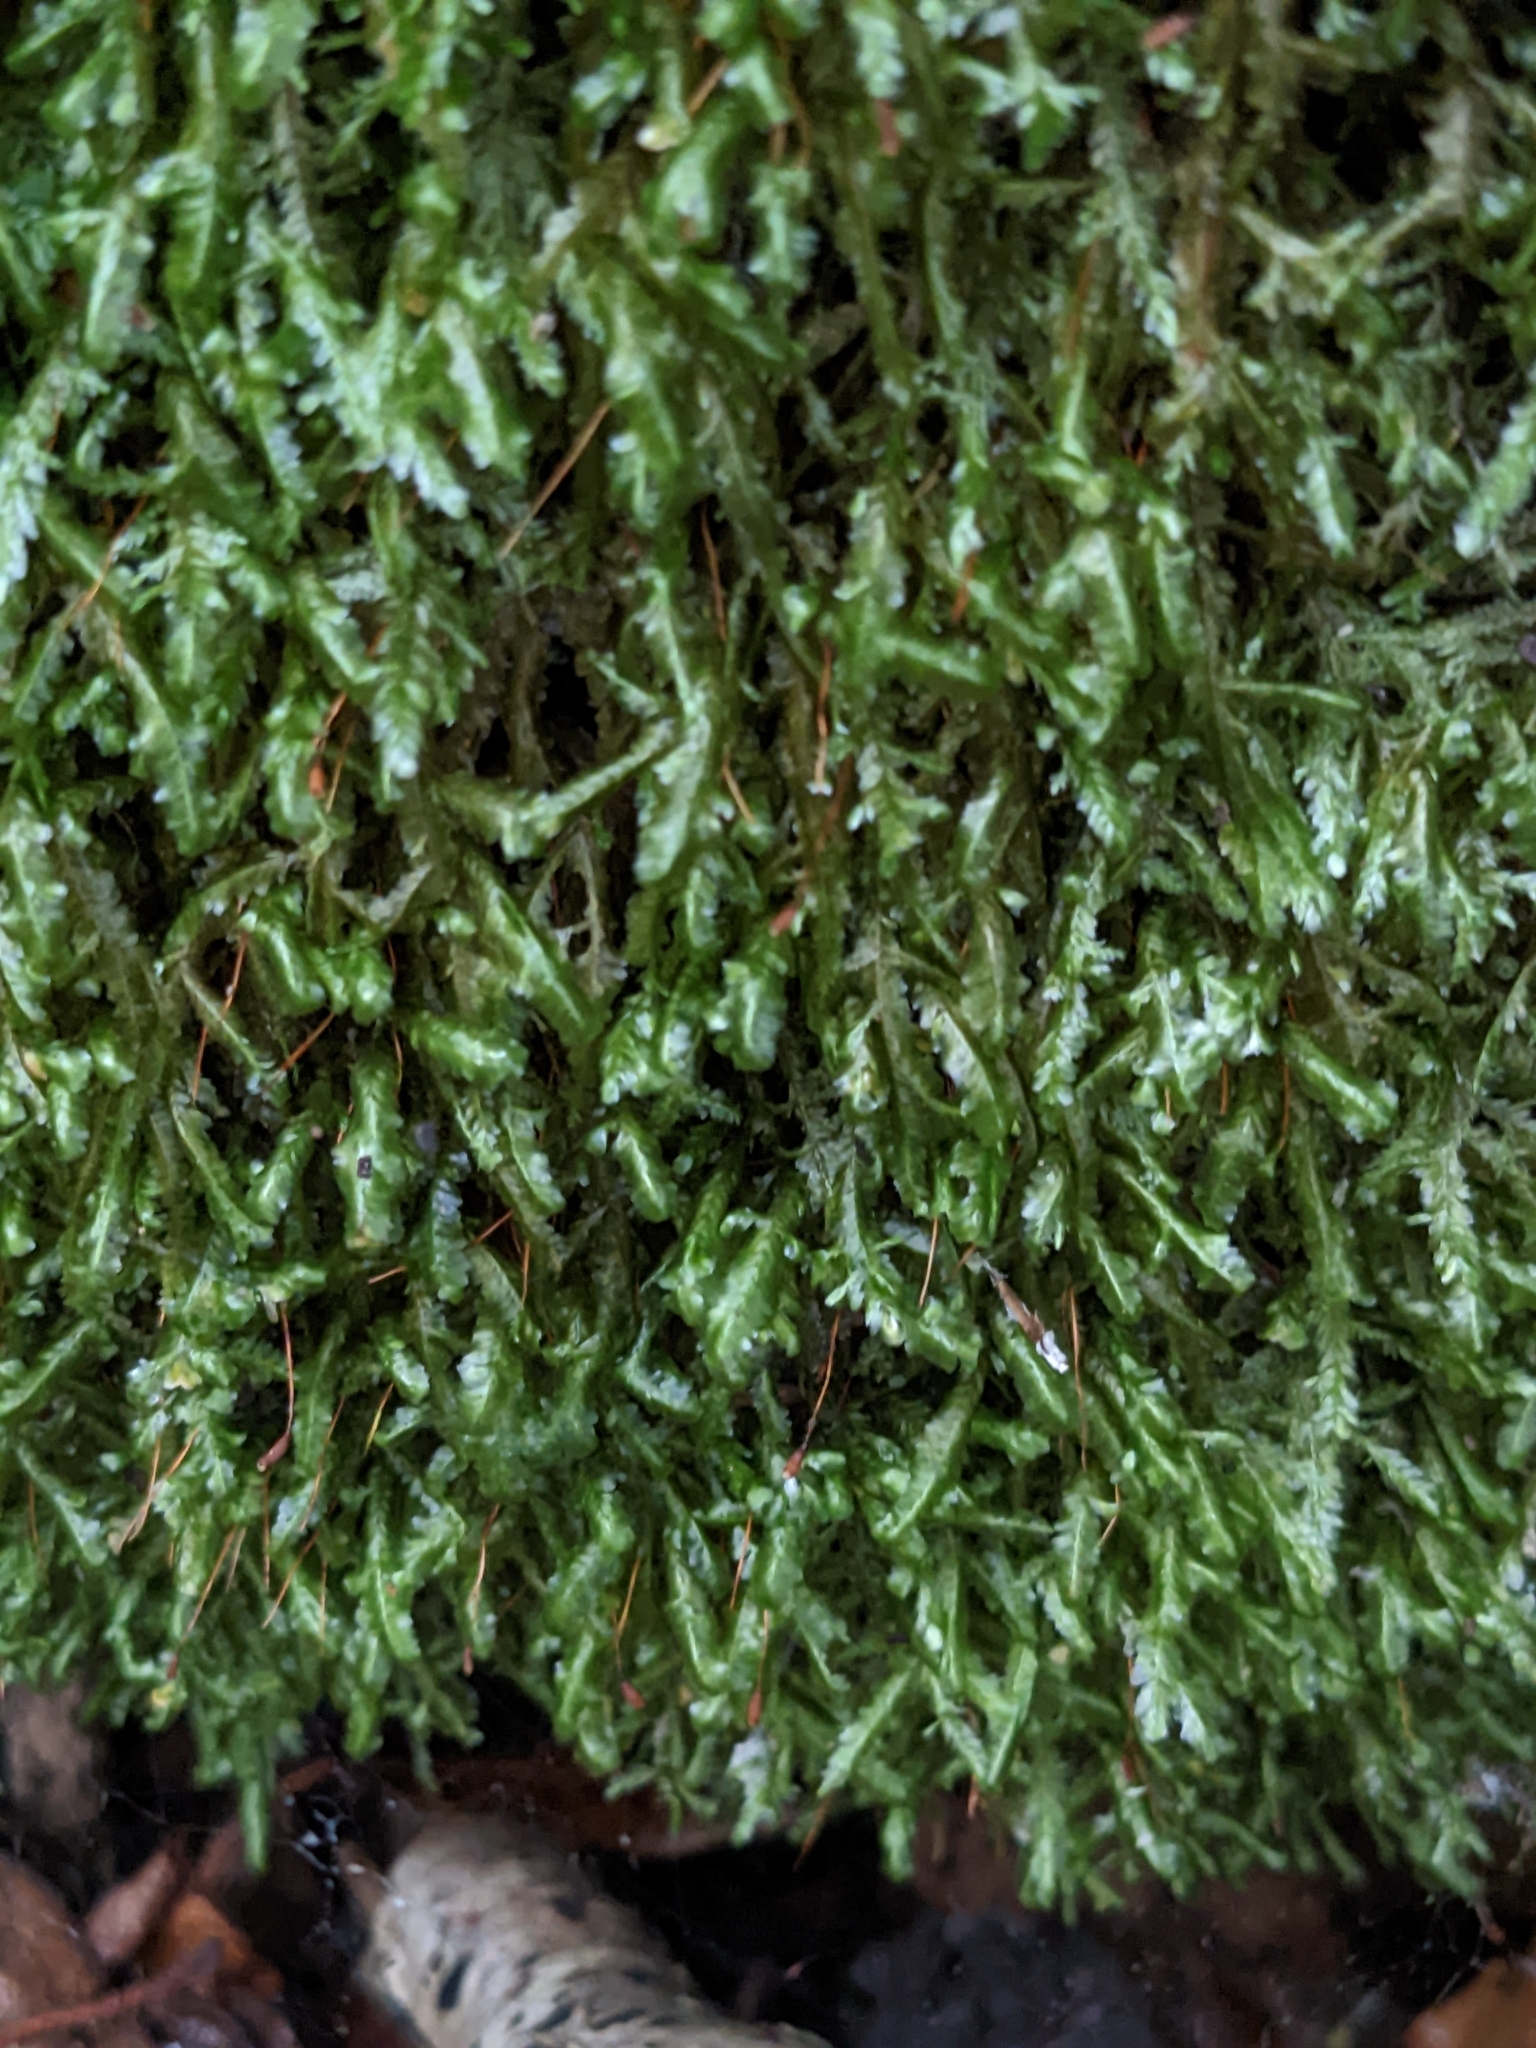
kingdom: Plantae
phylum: Bryophyta
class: Bryopsida
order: Hypnales
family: Neckeraceae
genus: Homalia
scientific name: Homalia trichomanoides
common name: Lime homalia moss
